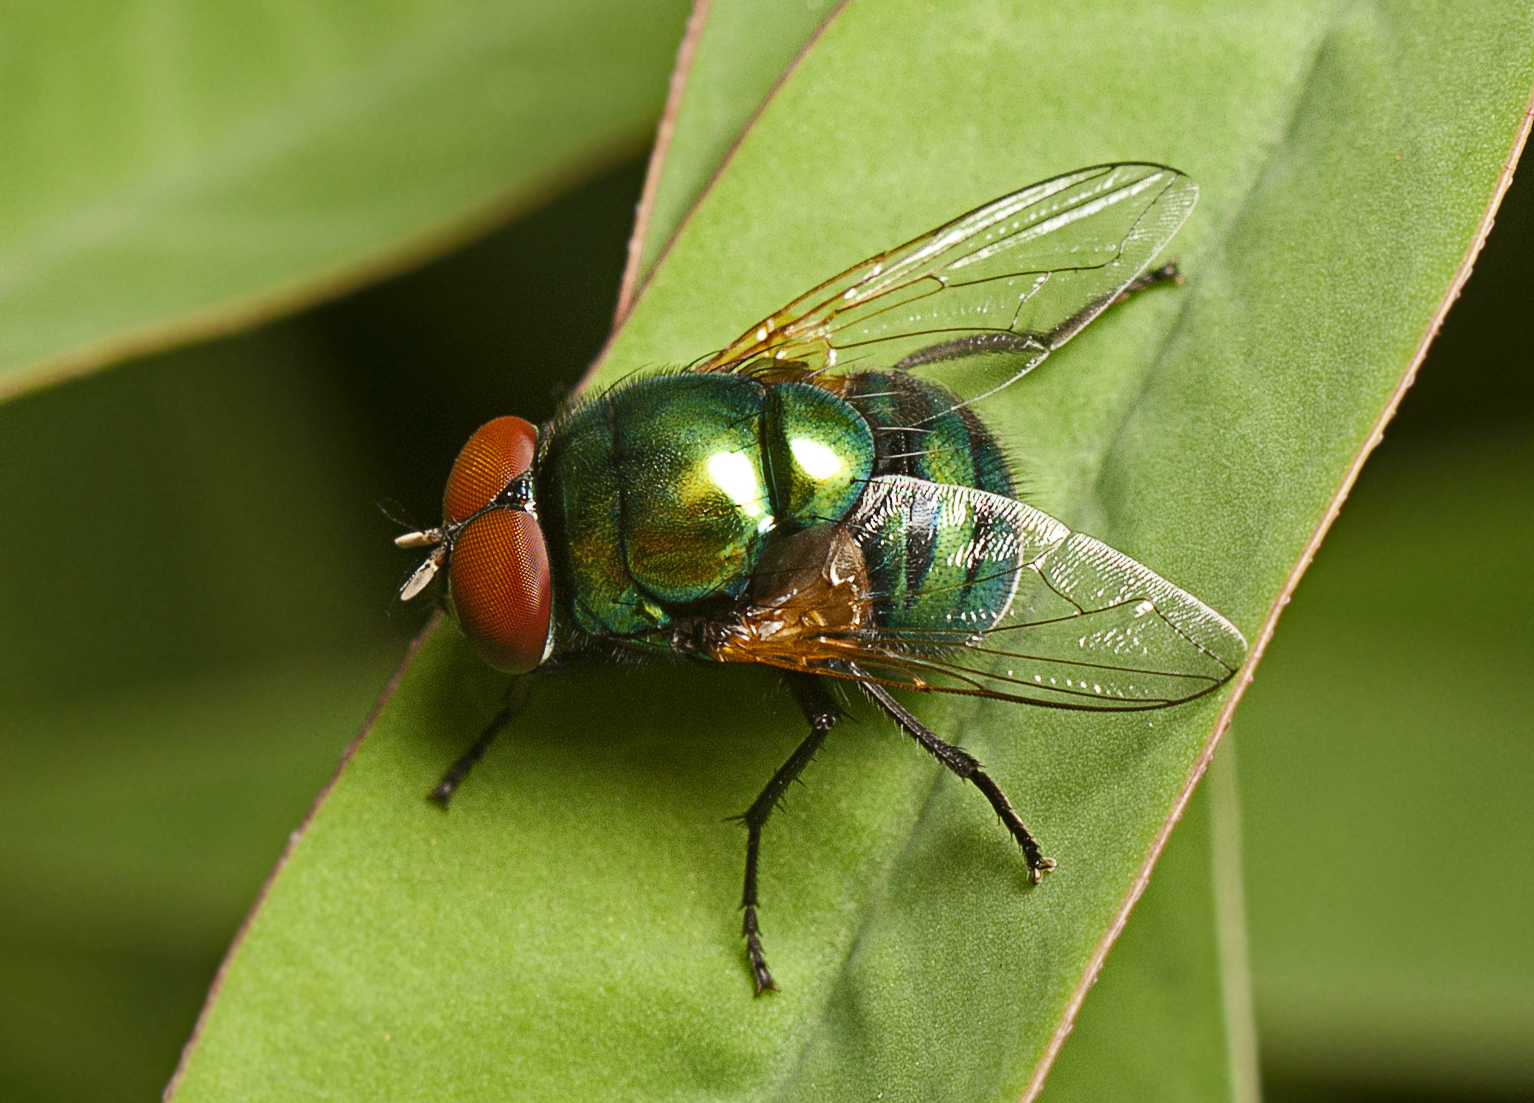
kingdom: Animalia
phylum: Arthropoda
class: Insecta
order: Diptera
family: Muscidae
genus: Neomyia
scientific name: Neomyia lauta
